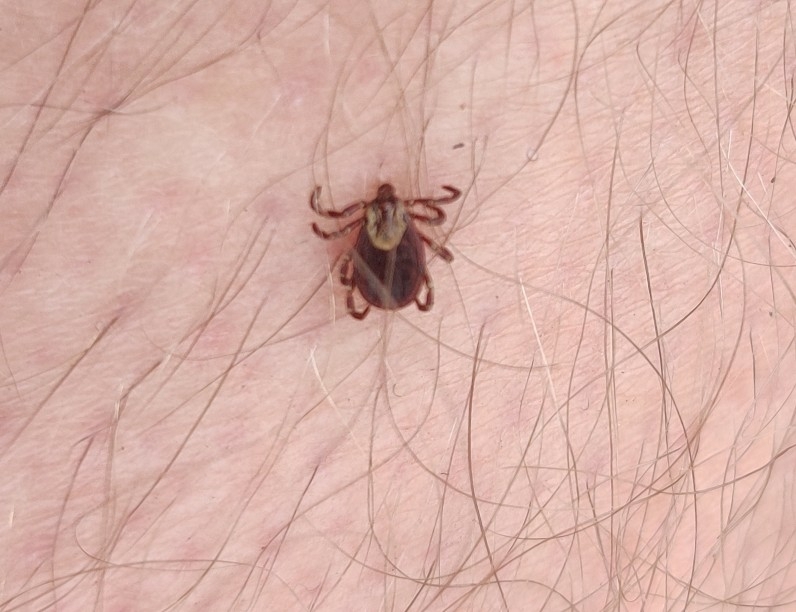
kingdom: Animalia
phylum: Arthropoda
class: Arachnida
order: Ixodida
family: Ixodidae
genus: Dermacentor
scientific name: Dermacentor variabilis
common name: American dog tick
